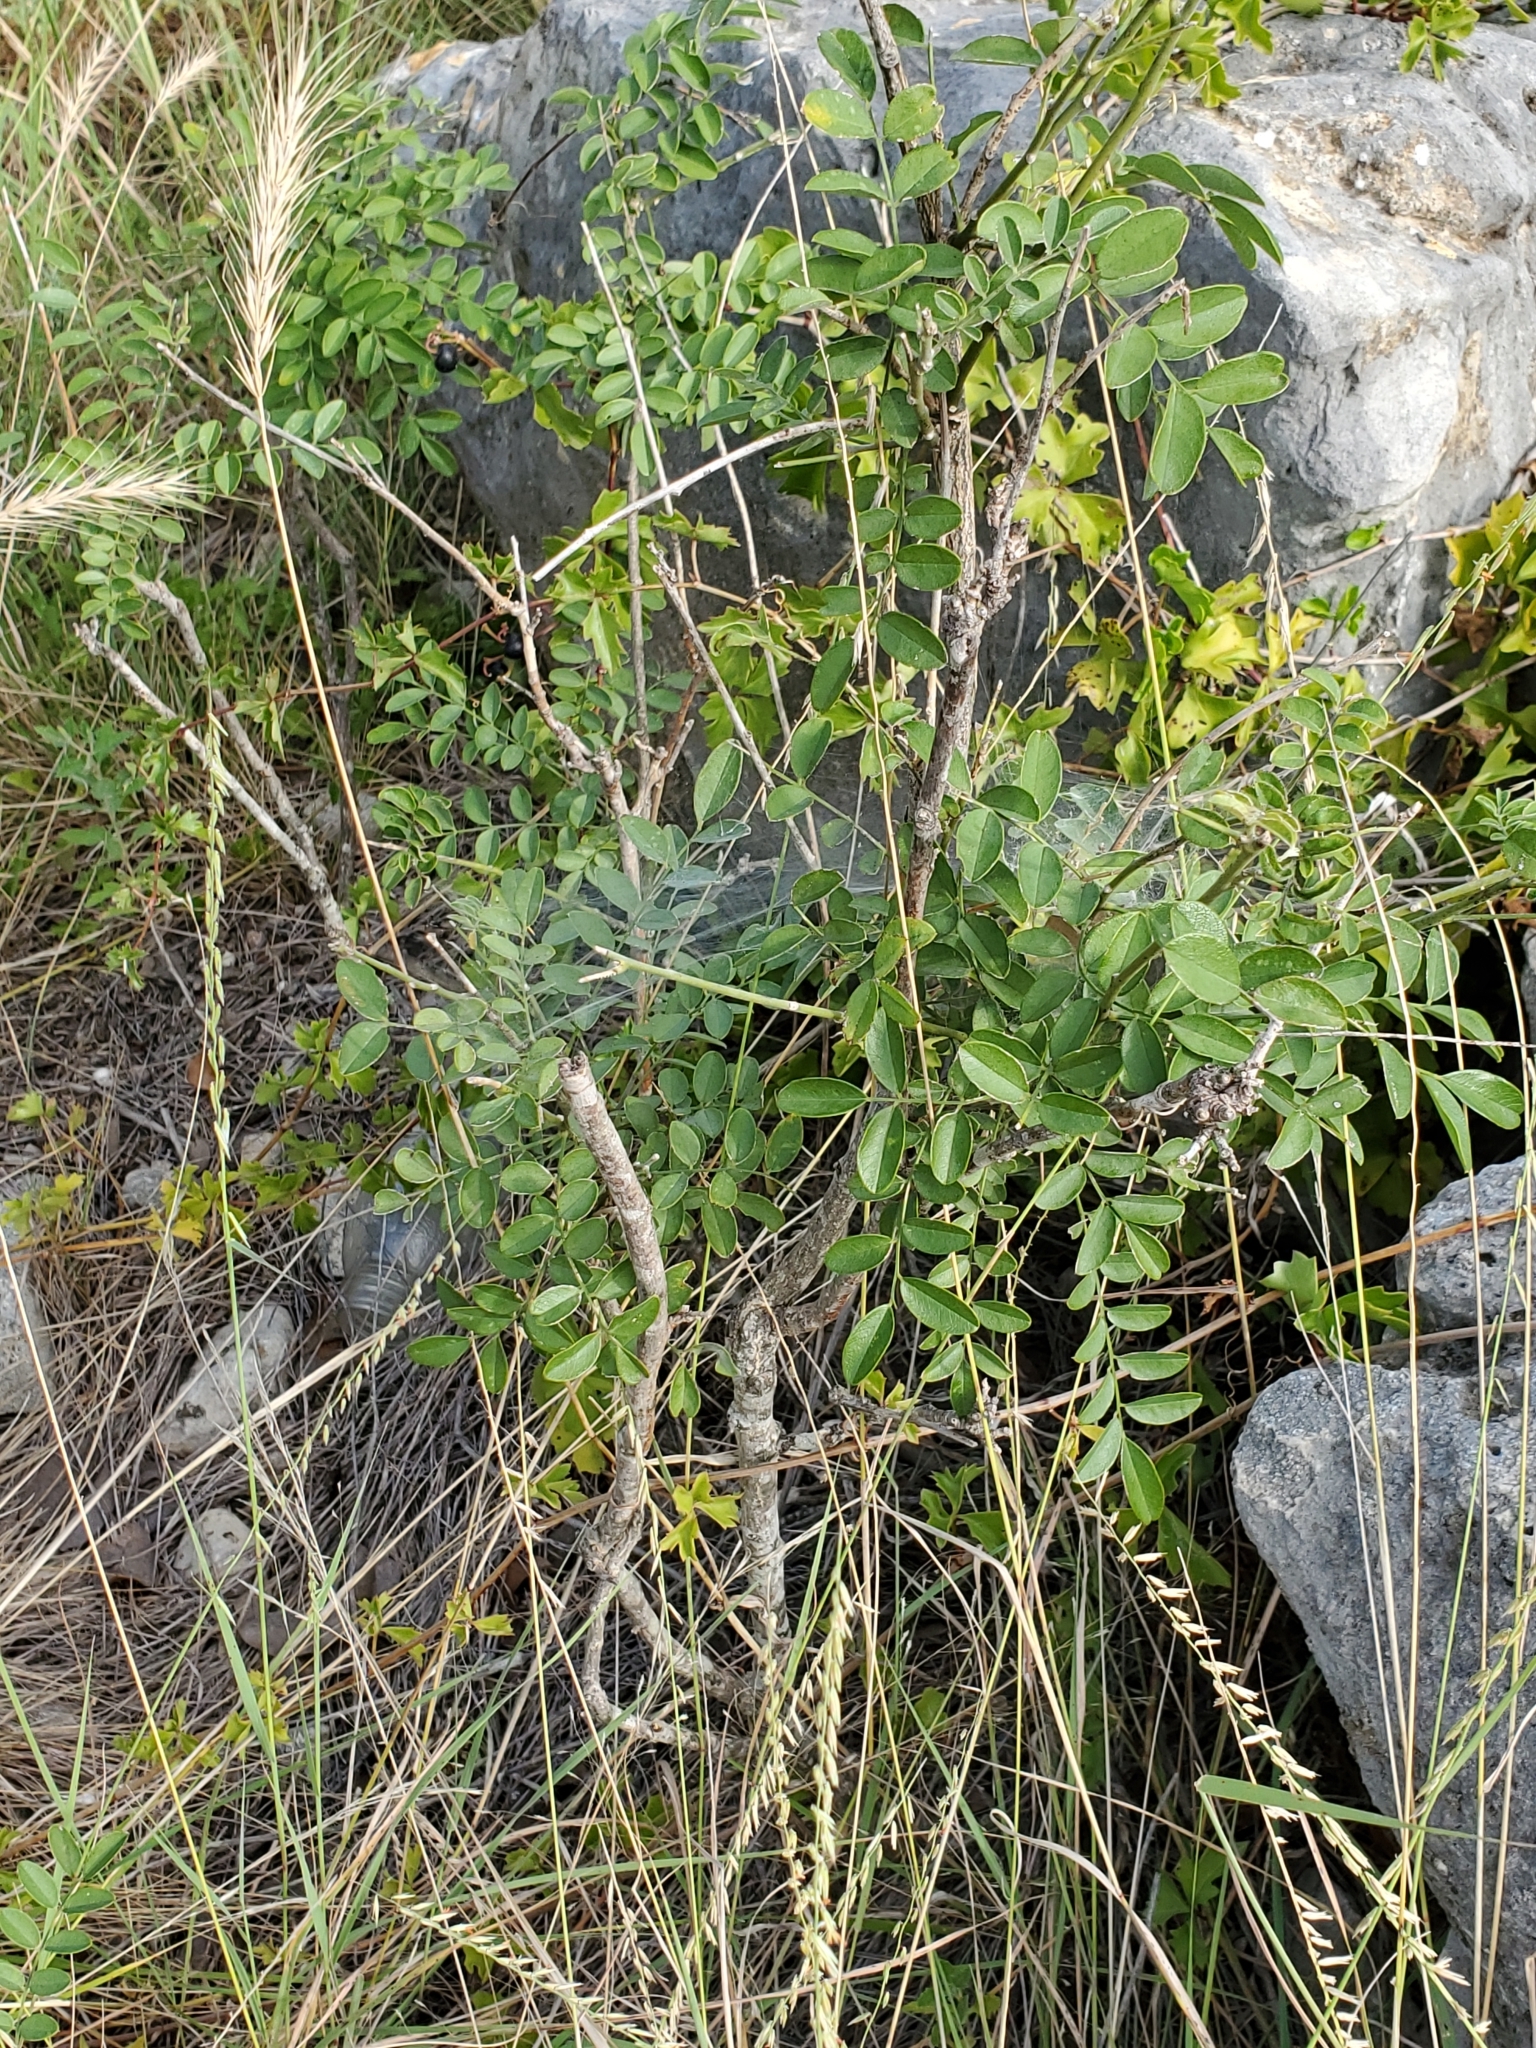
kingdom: Plantae
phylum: Tracheophyta
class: Magnoliopsida
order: Fabales
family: Fabaceae
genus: Styphnolobium
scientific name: Styphnolobium affine
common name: Texas sophora
